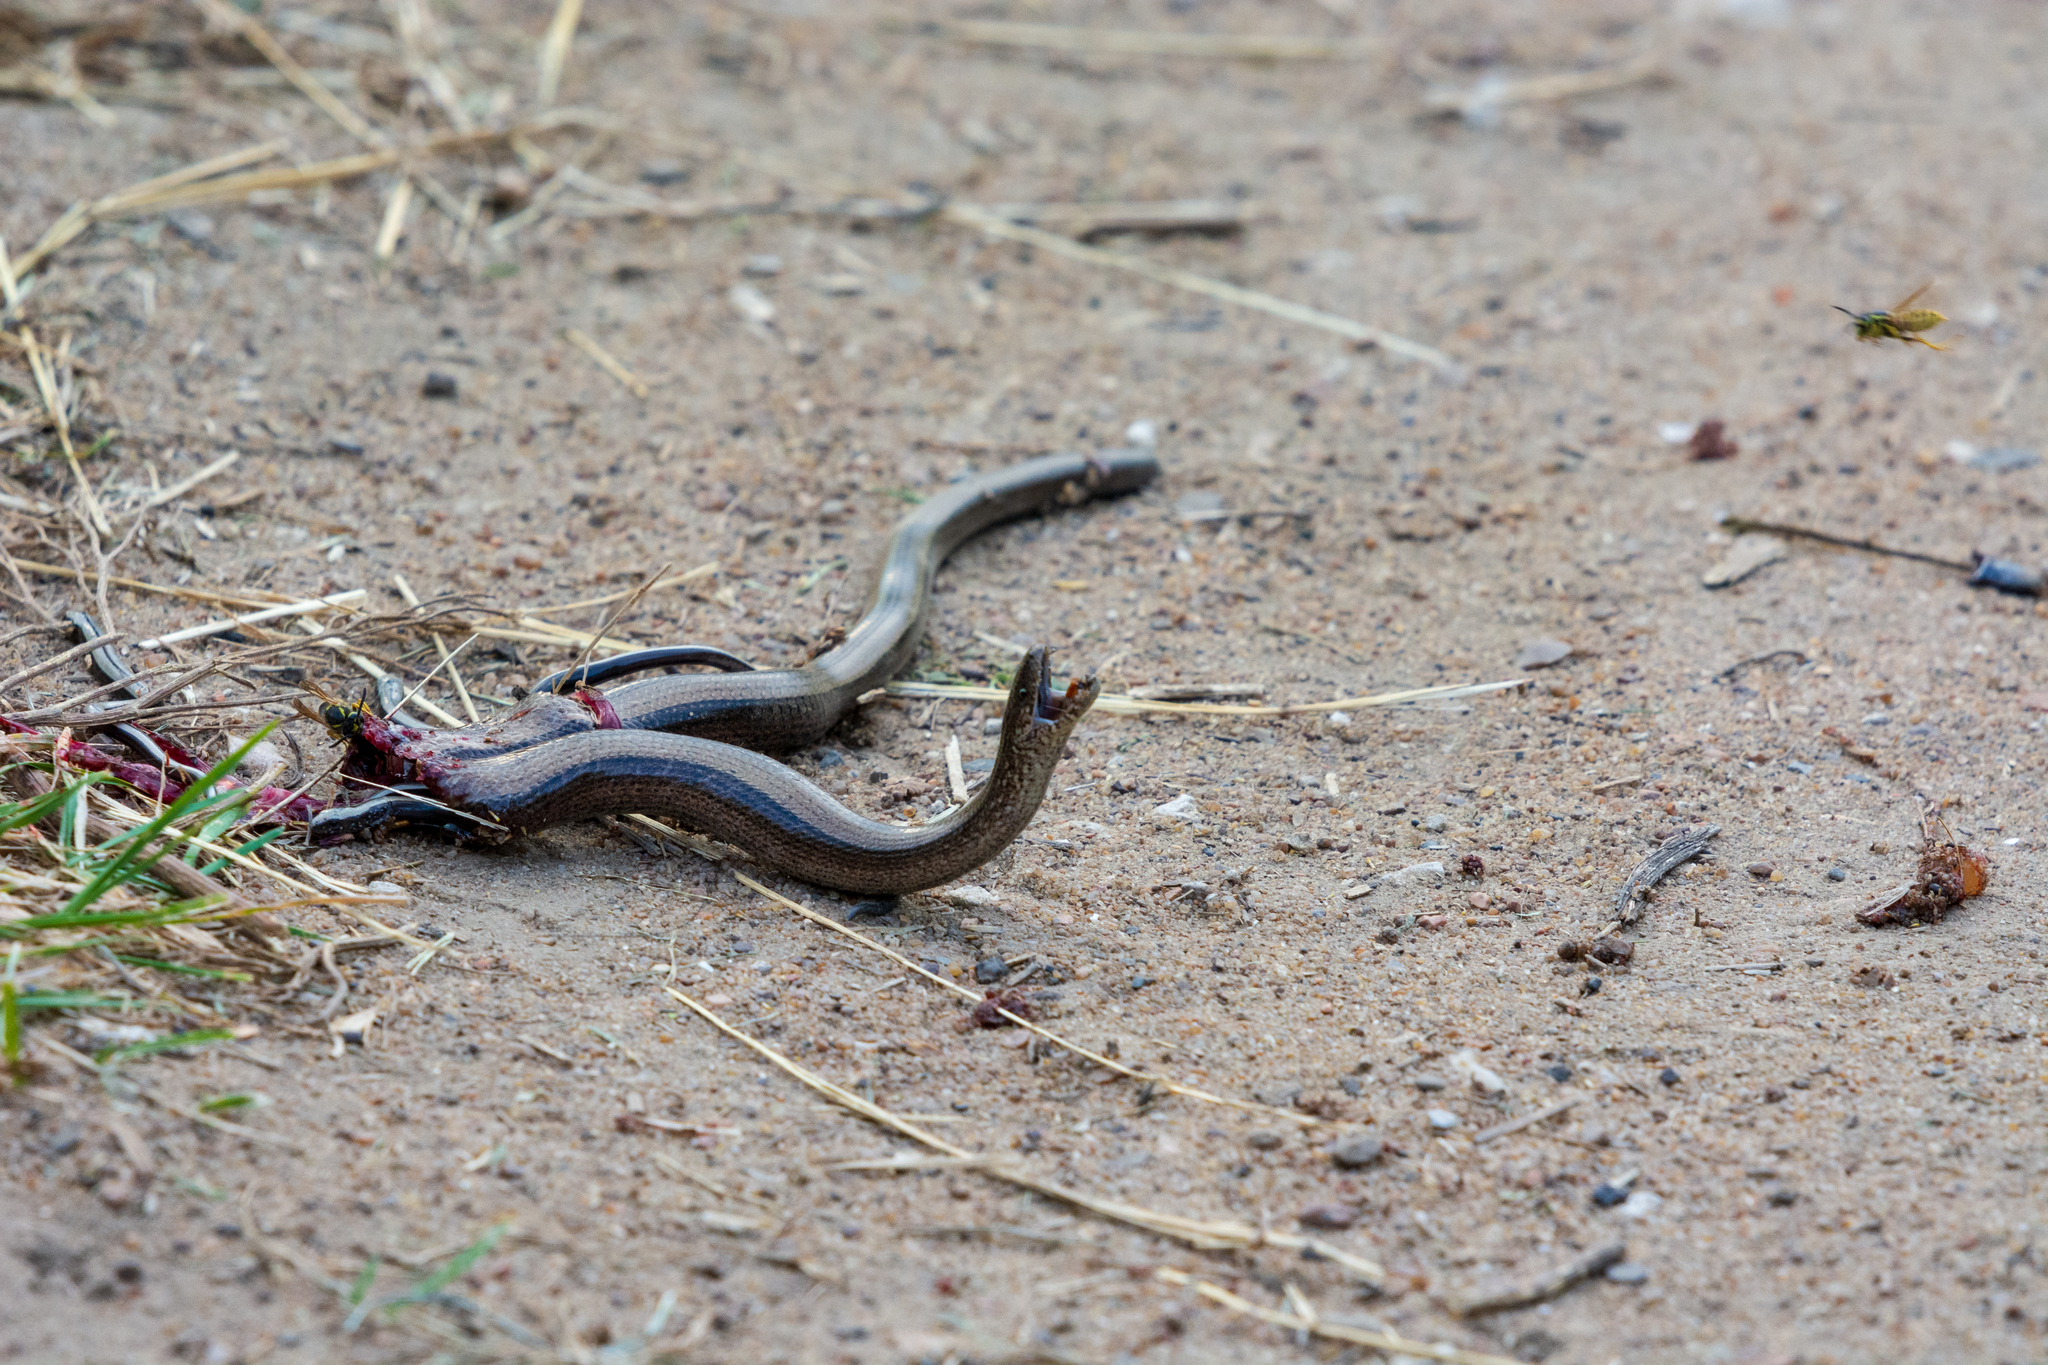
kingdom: Animalia
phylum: Chordata
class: Squamata
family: Anguidae
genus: Anguis
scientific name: Anguis colchica
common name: Slow worm
